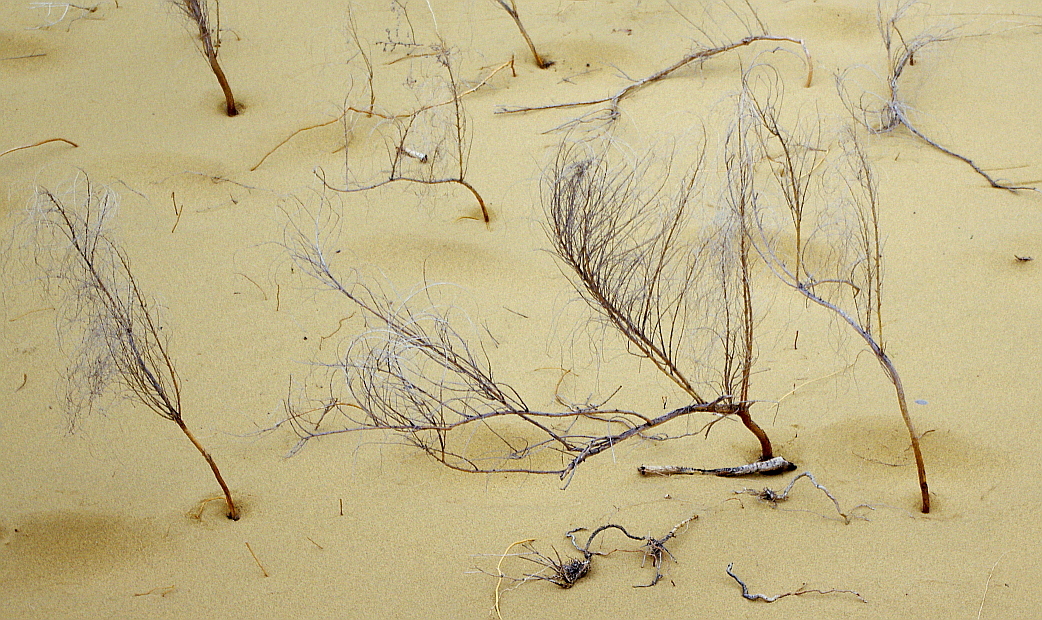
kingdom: Plantae
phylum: Tracheophyta
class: Magnoliopsida
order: Fabales
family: Fabaceae
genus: Eremosparton
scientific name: Eremosparton aphyllum
